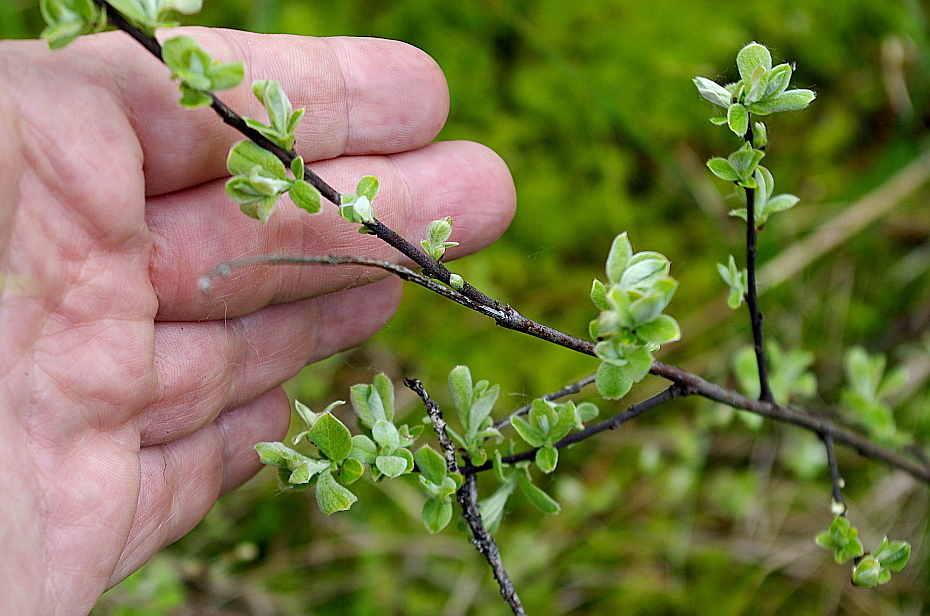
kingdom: Plantae
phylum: Tracheophyta
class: Magnoliopsida
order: Malpighiales
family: Salicaceae
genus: Salix
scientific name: Salix aurita
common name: Eared willow
